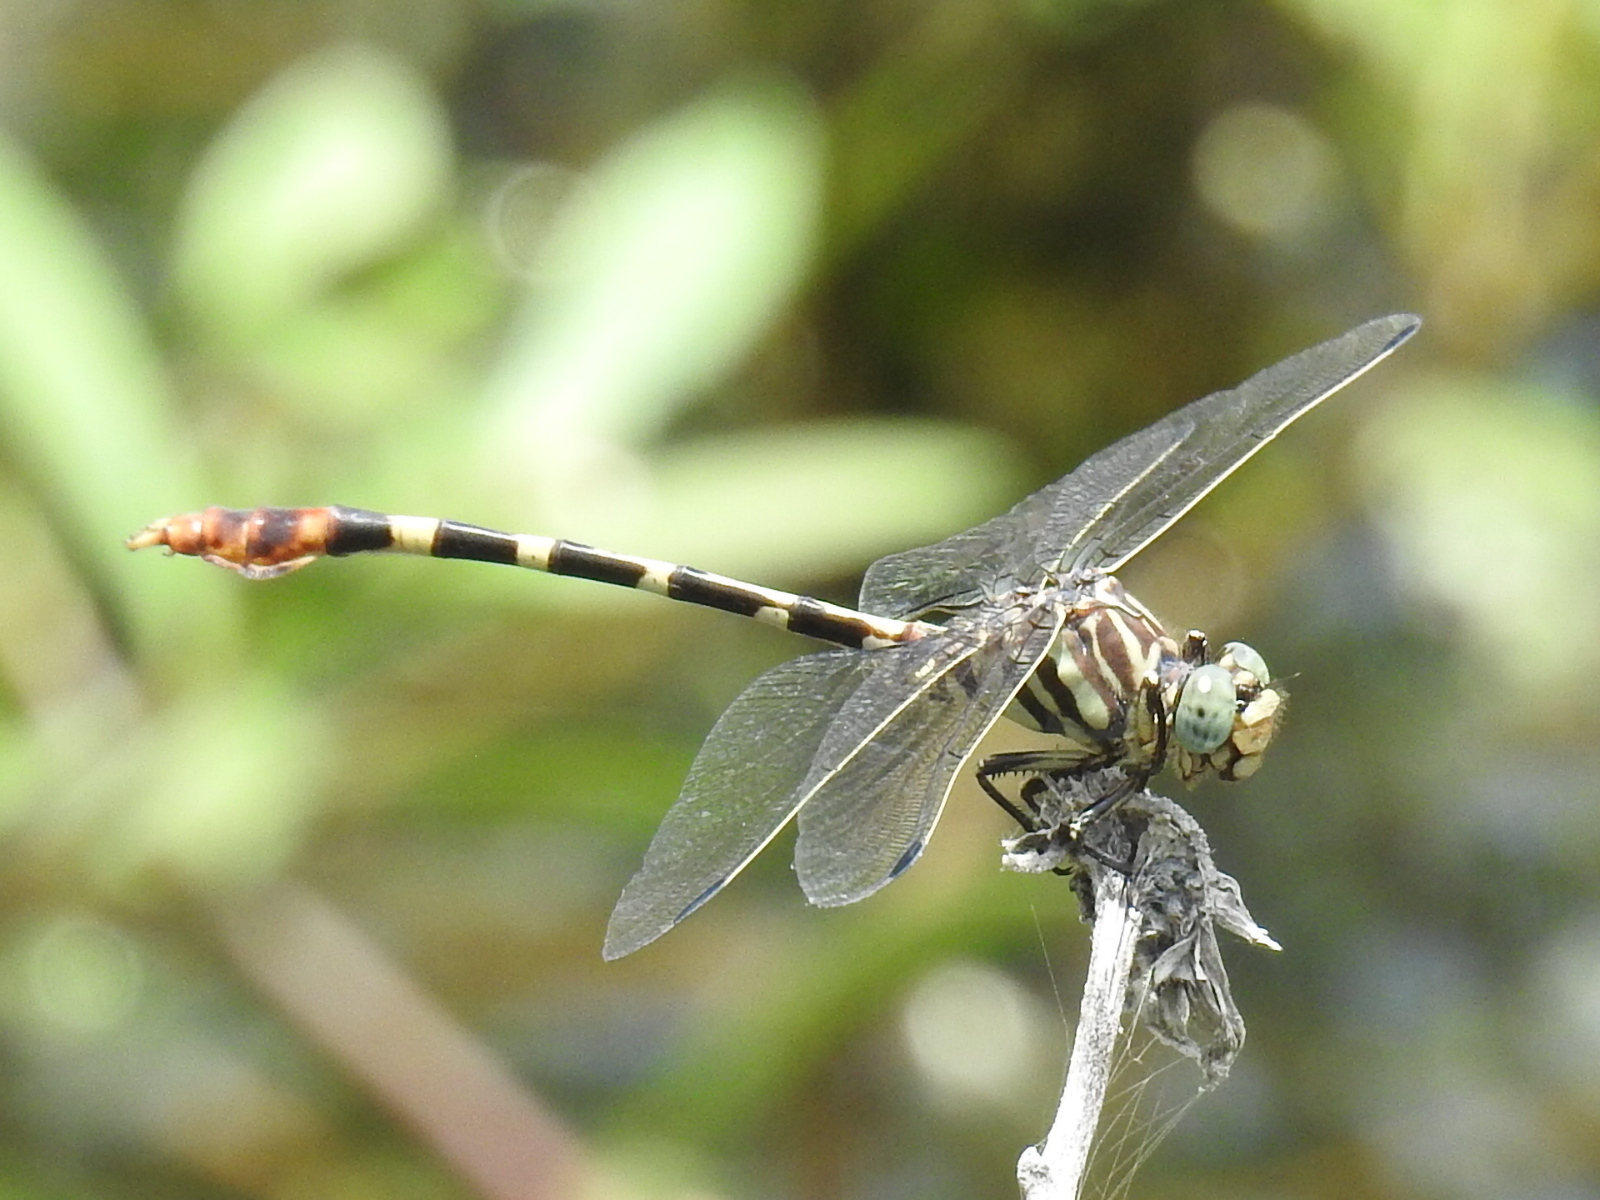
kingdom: Animalia
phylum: Arthropoda
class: Insecta
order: Odonata
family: Gomphidae
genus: Phyllogomphoides
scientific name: Phyllogomphoides stigmatus
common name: Four-striped leaftail
